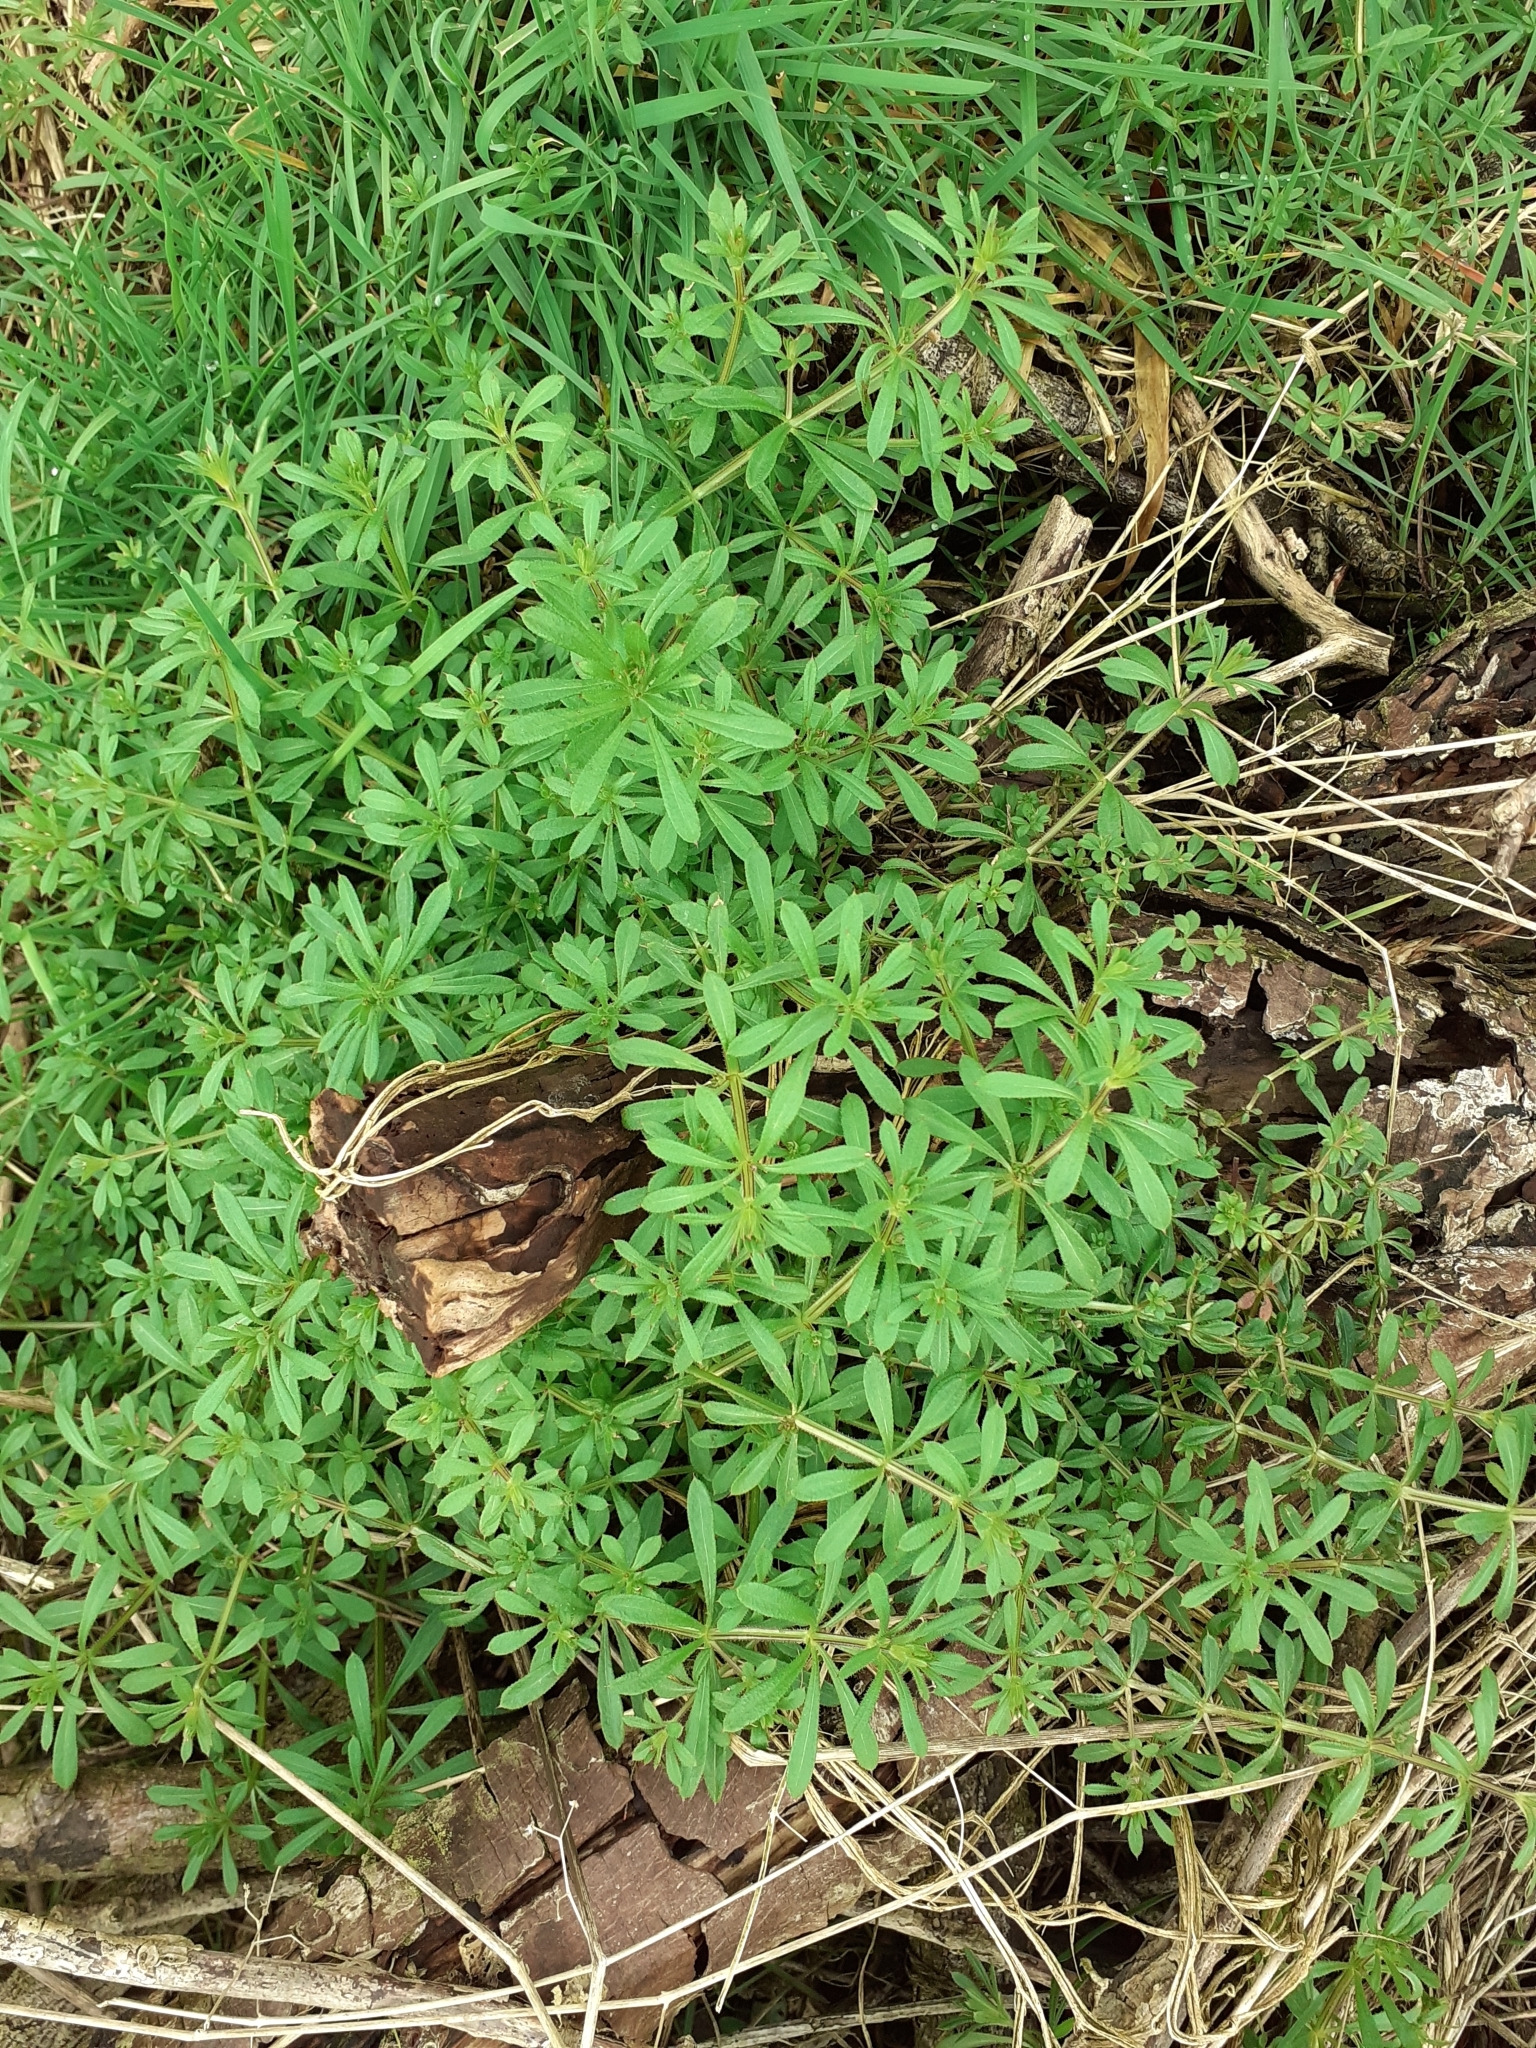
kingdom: Plantae
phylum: Tracheophyta
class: Magnoliopsida
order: Gentianales
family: Rubiaceae
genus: Galium
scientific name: Galium aparine
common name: Cleavers
